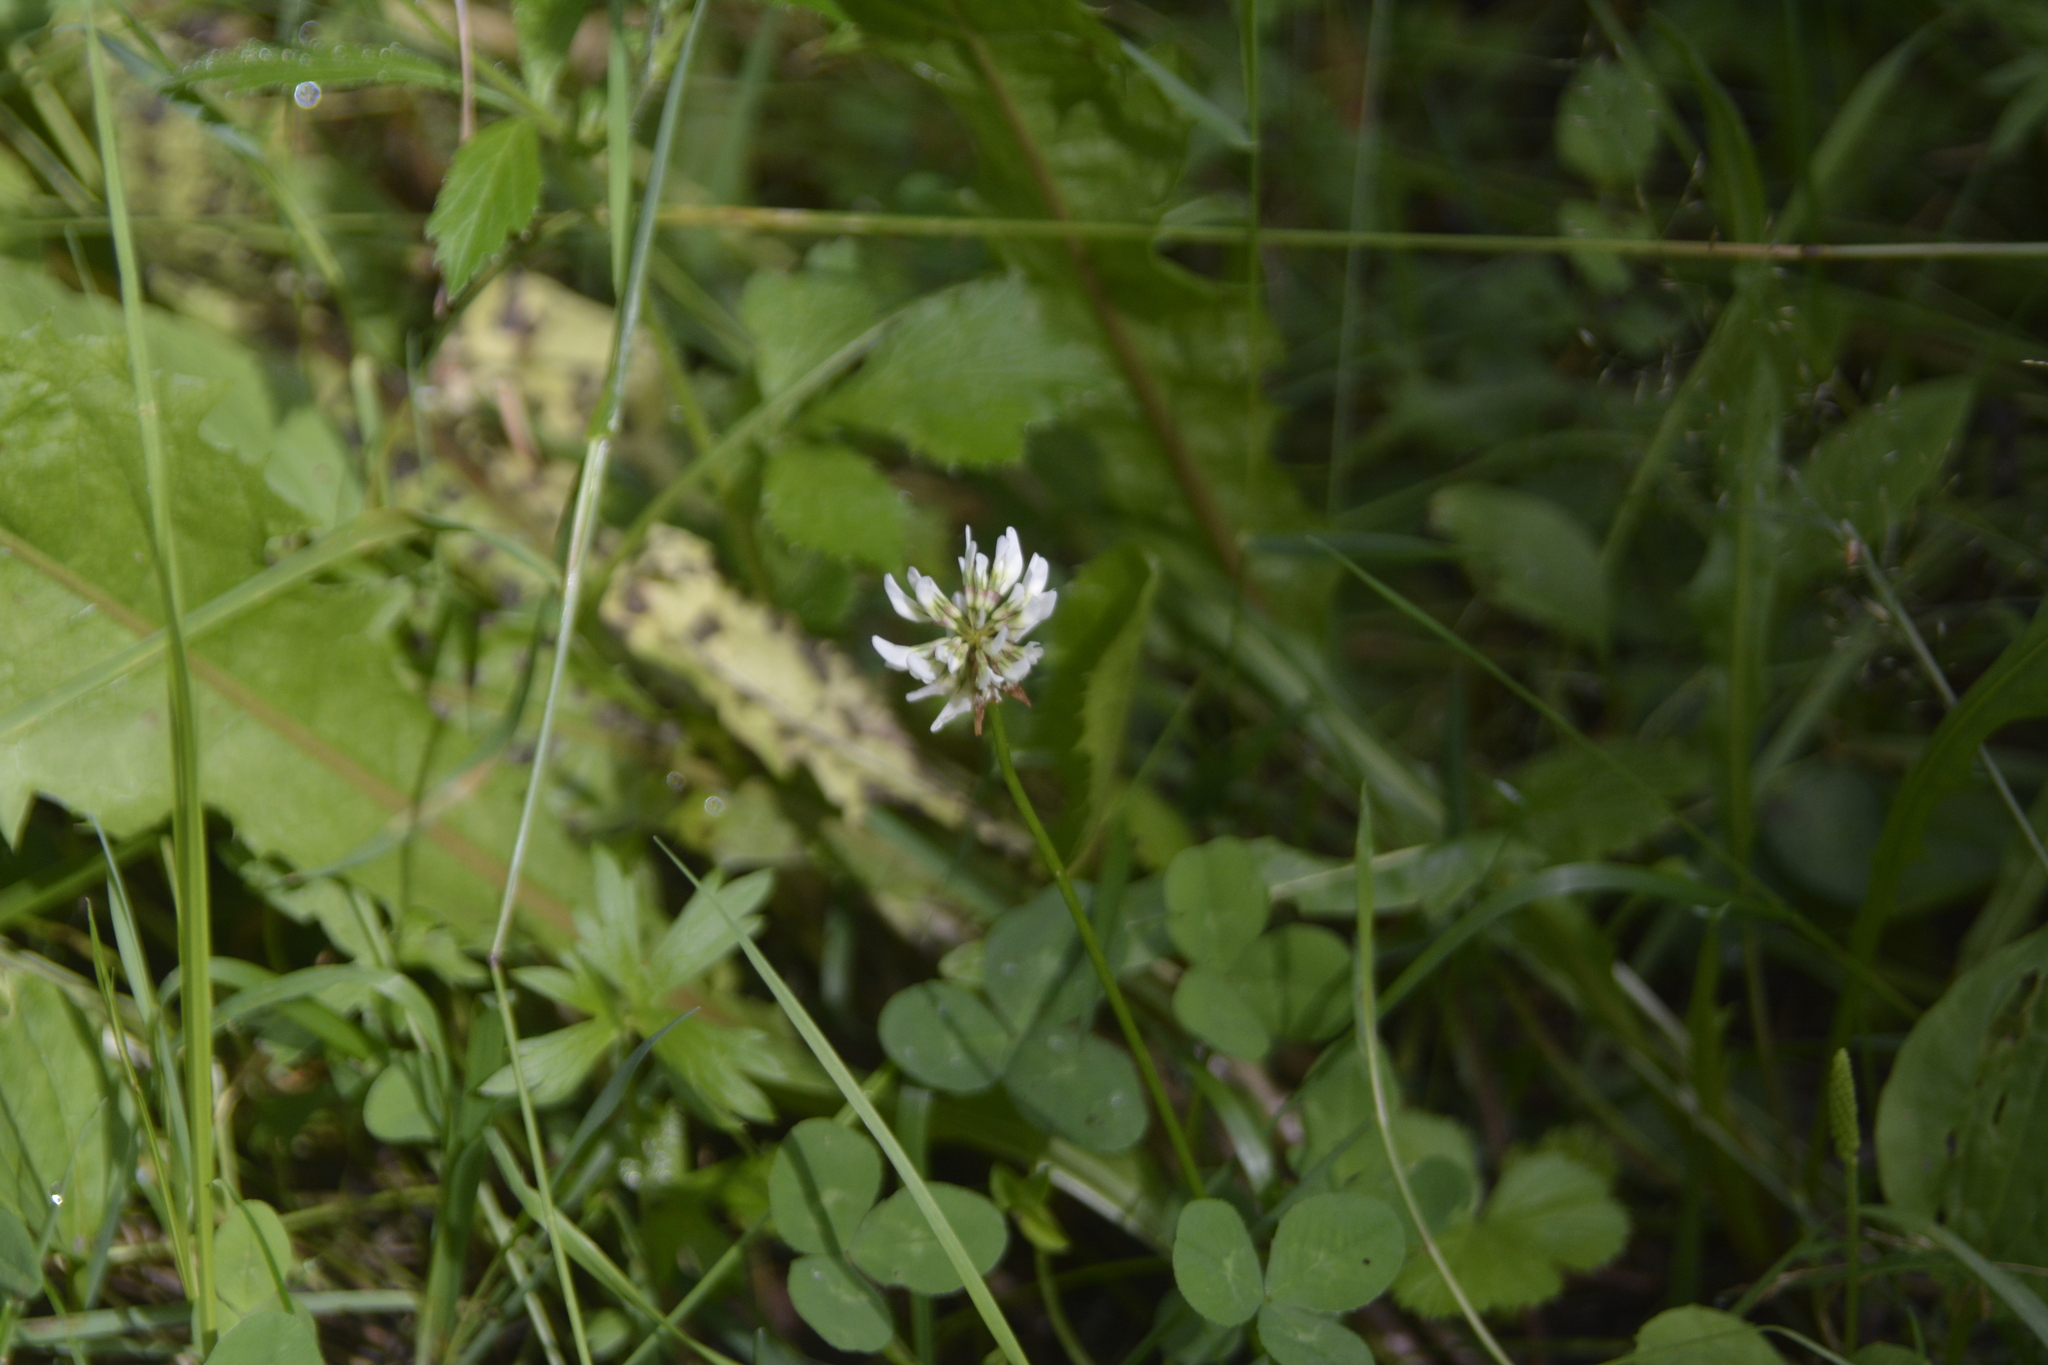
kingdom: Plantae
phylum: Tracheophyta
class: Magnoliopsida
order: Fabales
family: Fabaceae
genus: Trifolium
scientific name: Trifolium repens
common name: White clover
